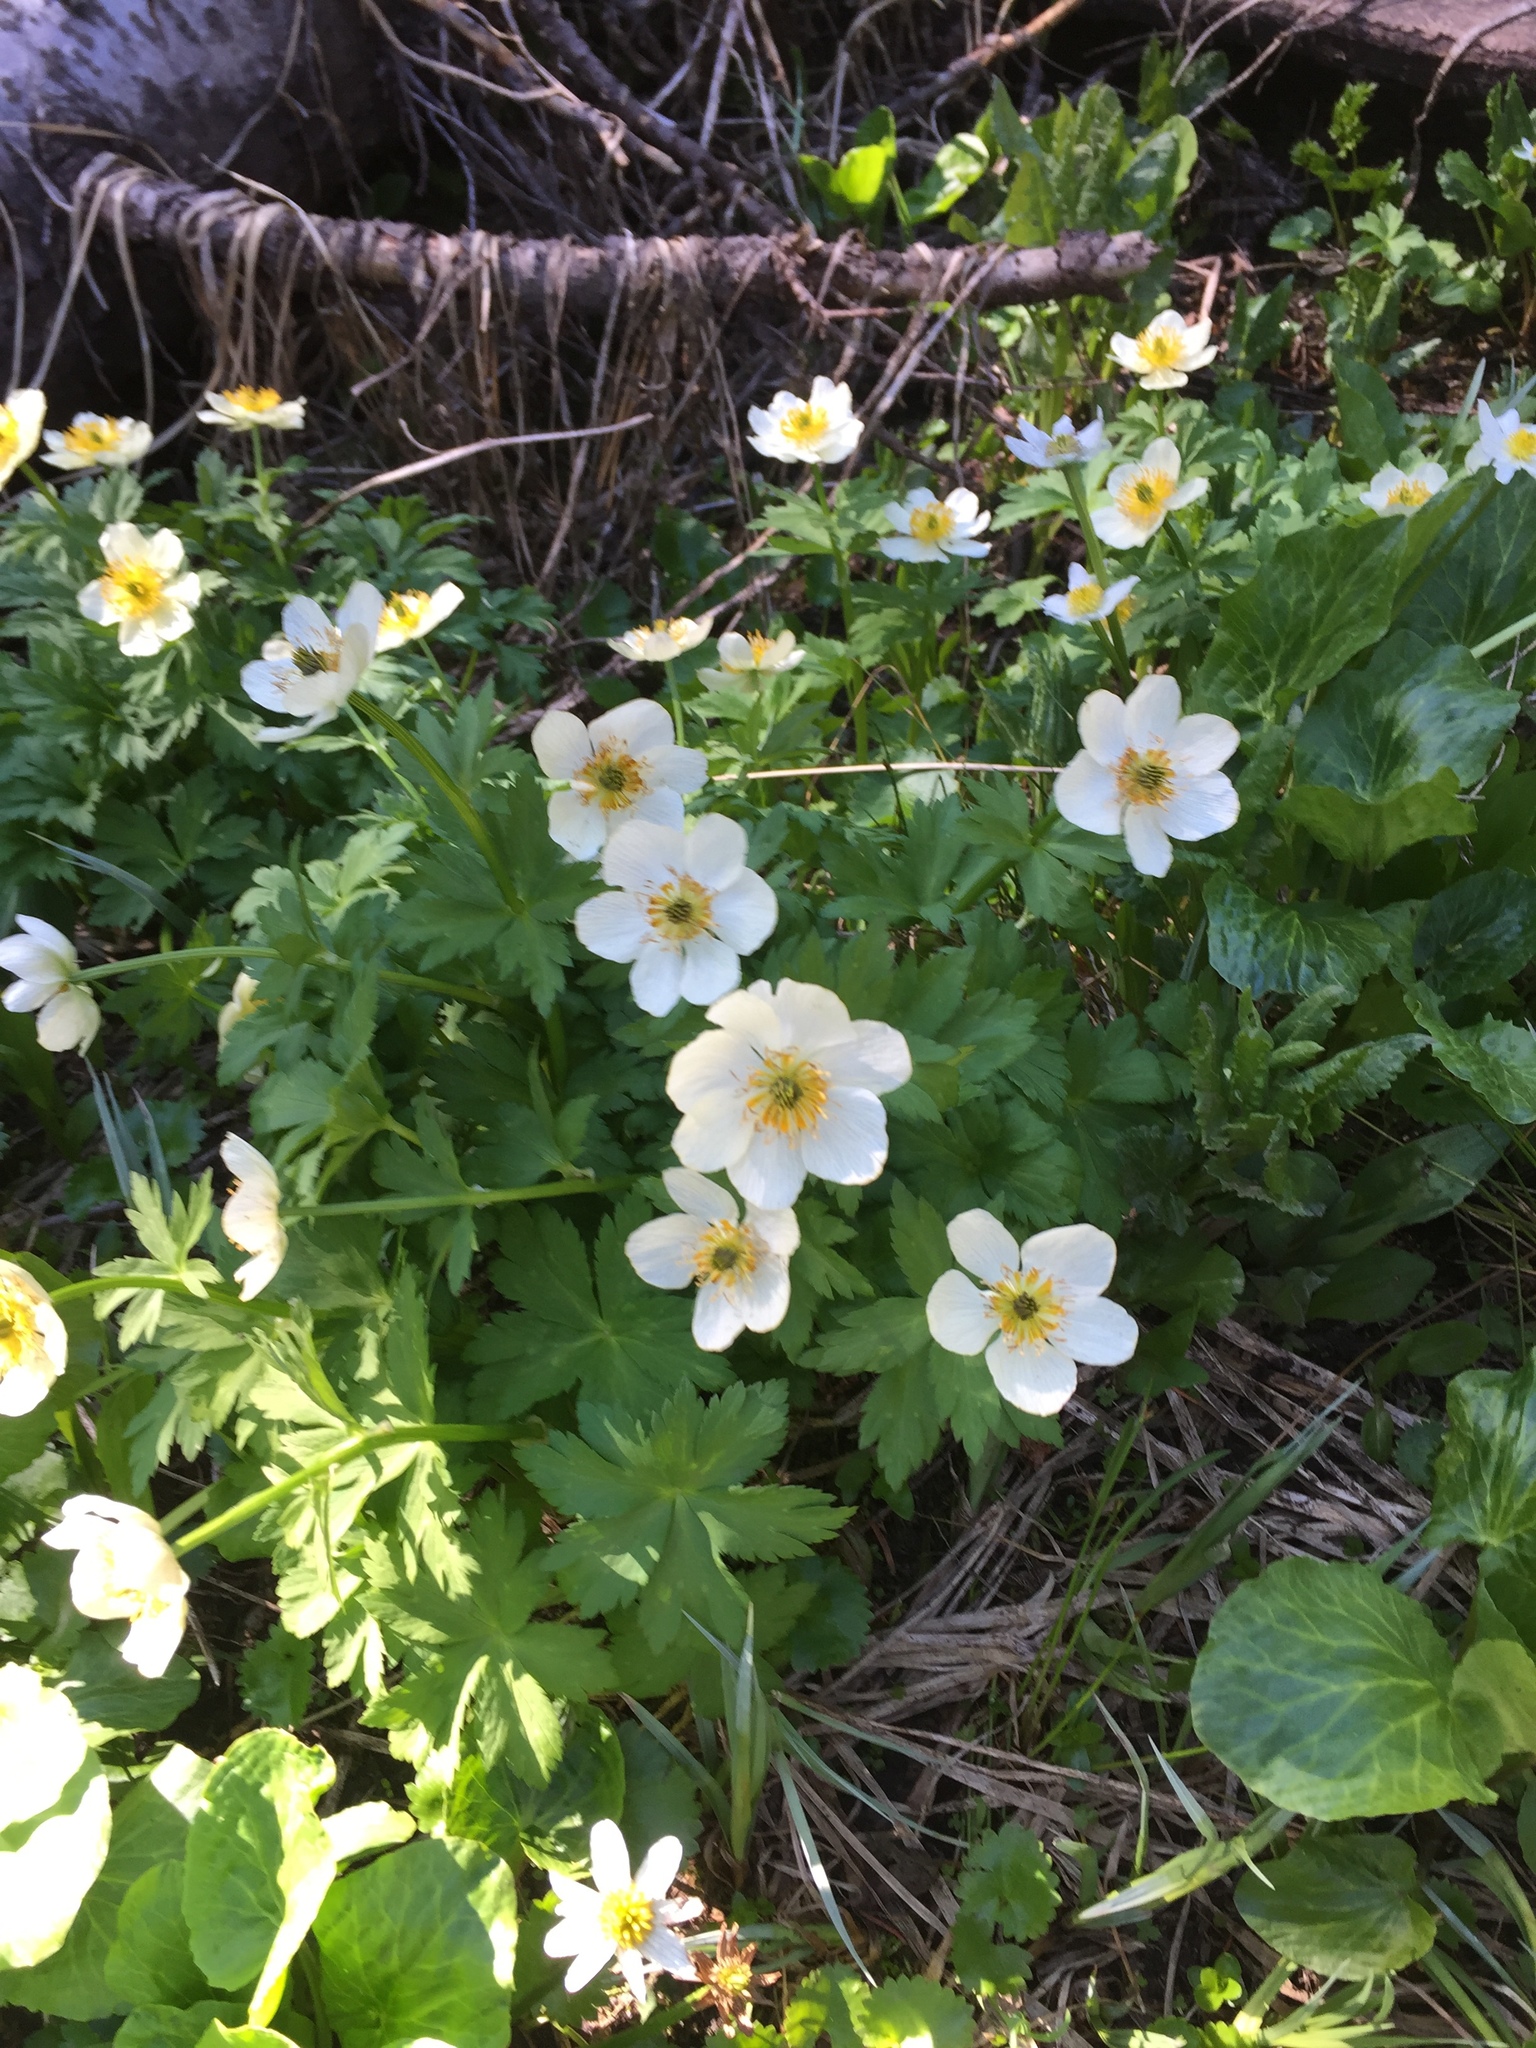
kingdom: Plantae
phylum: Tracheophyta
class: Magnoliopsida
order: Ranunculales
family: Ranunculaceae
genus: Trollius
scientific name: Trollius laxus
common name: American globeflower
